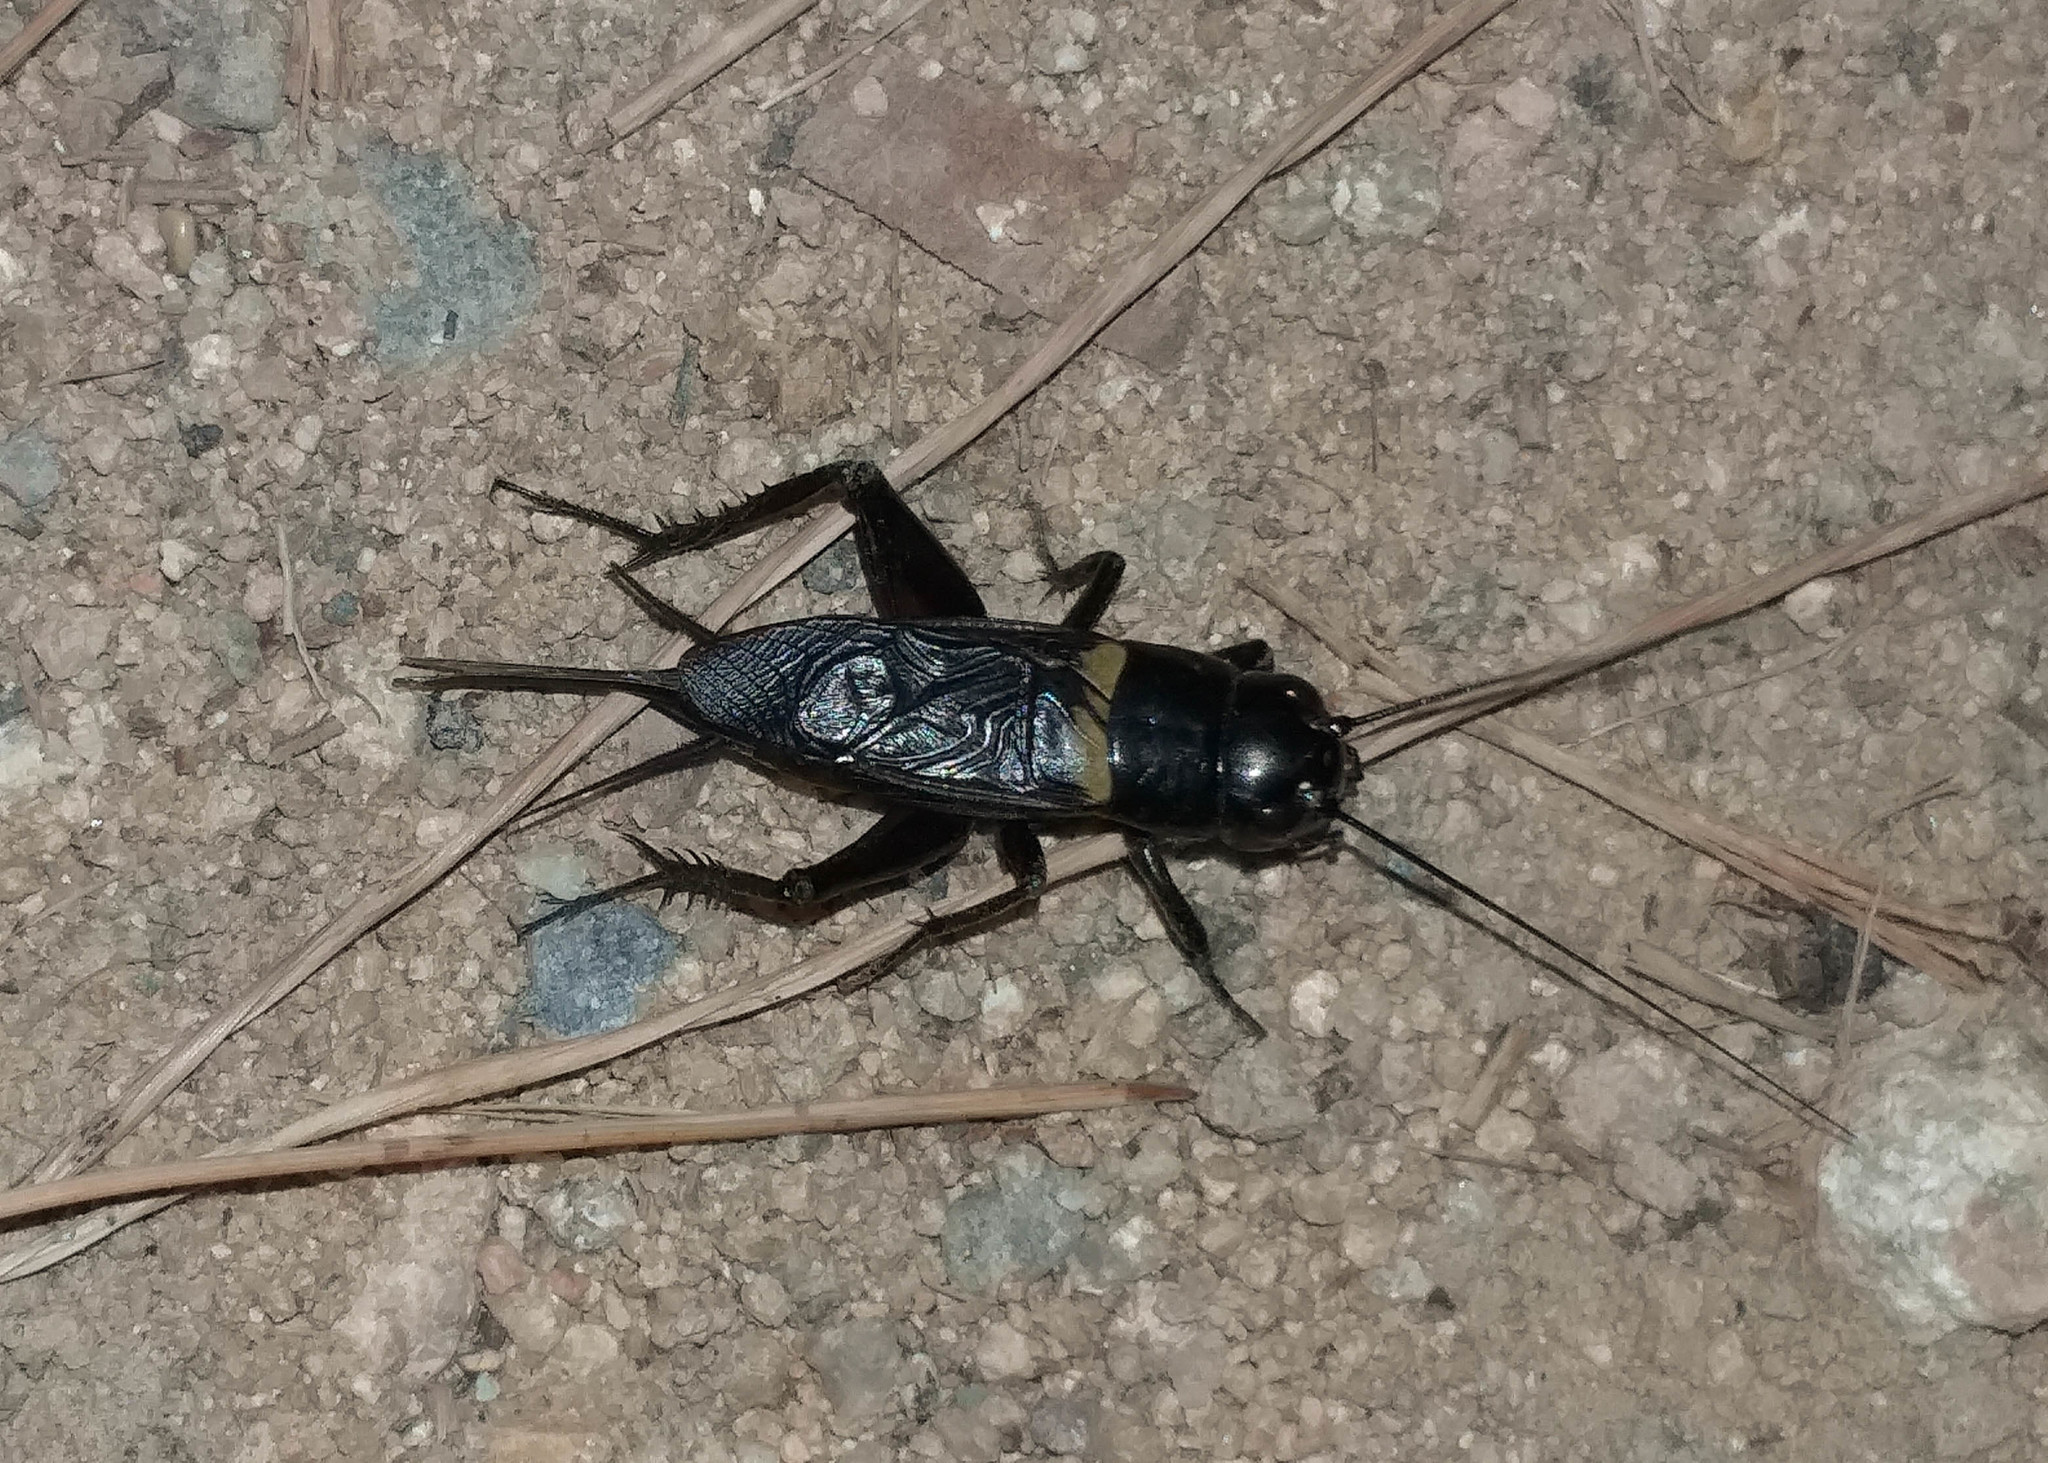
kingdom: Animalia
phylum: Arthropoda
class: Insecta
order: Orthoptera
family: Gryllidae
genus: Gryllus
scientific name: Gryllus bimaculatus
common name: Two-spotted cricket
